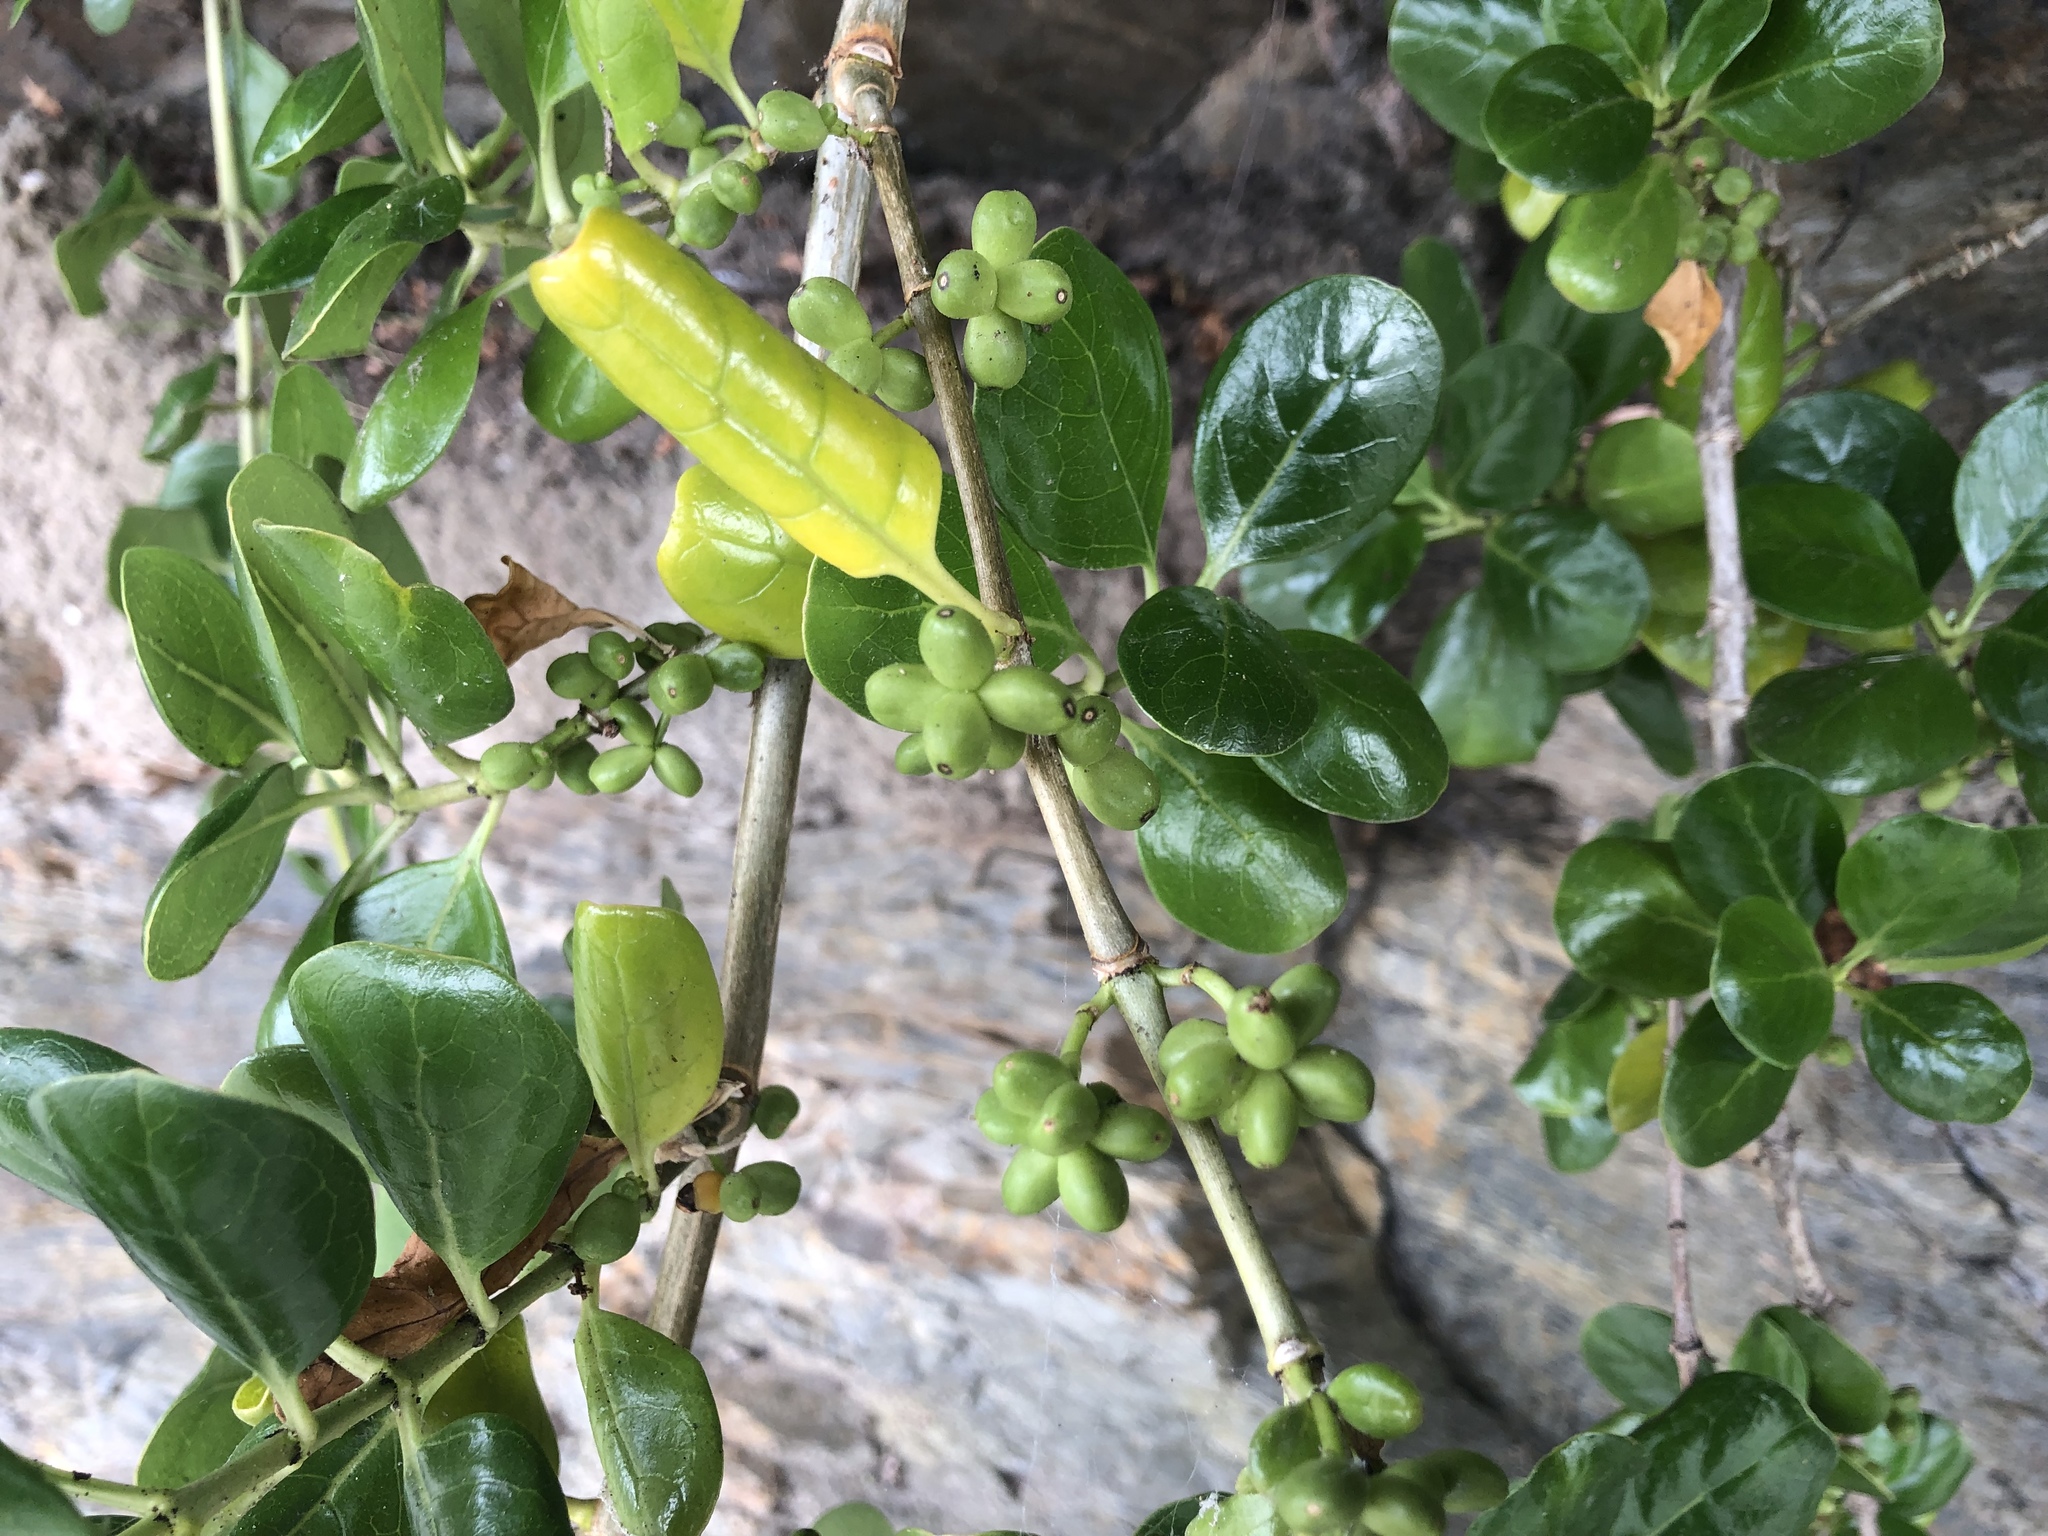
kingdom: Plantae
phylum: Tracheophyta
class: Magnoliopsida
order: Gentianales
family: Rubiaceae
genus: Coprosma
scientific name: Coprosma repens
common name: Tree bedstraw
